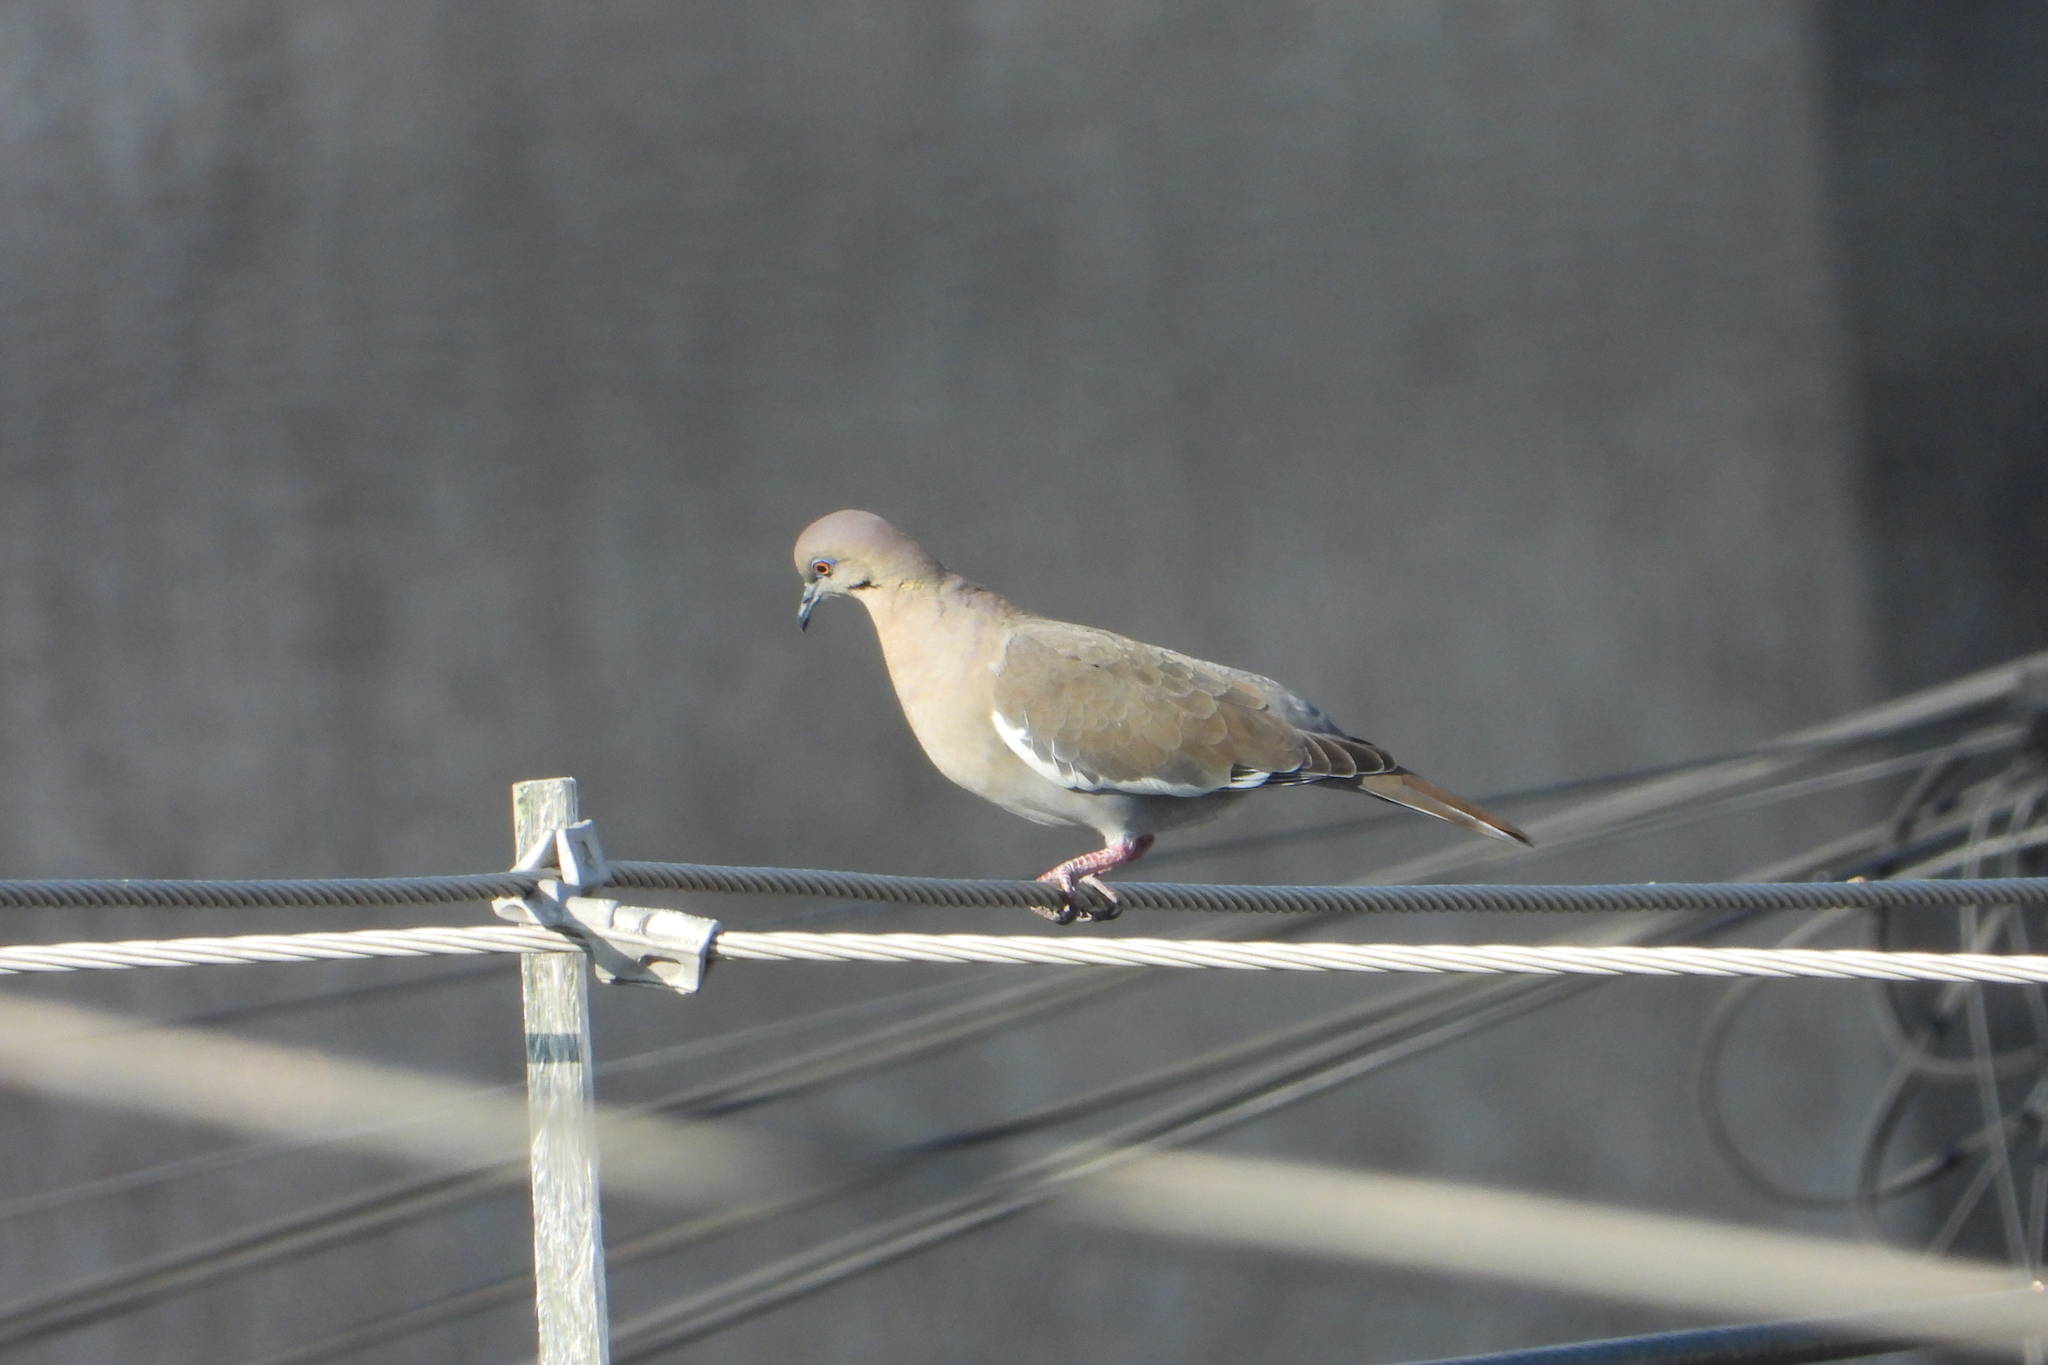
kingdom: Animalia
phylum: Chordata
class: Aves
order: Columbiformes
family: Columbidae
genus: Zenaida
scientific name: Zenaida asiatica
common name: White-winged dove
